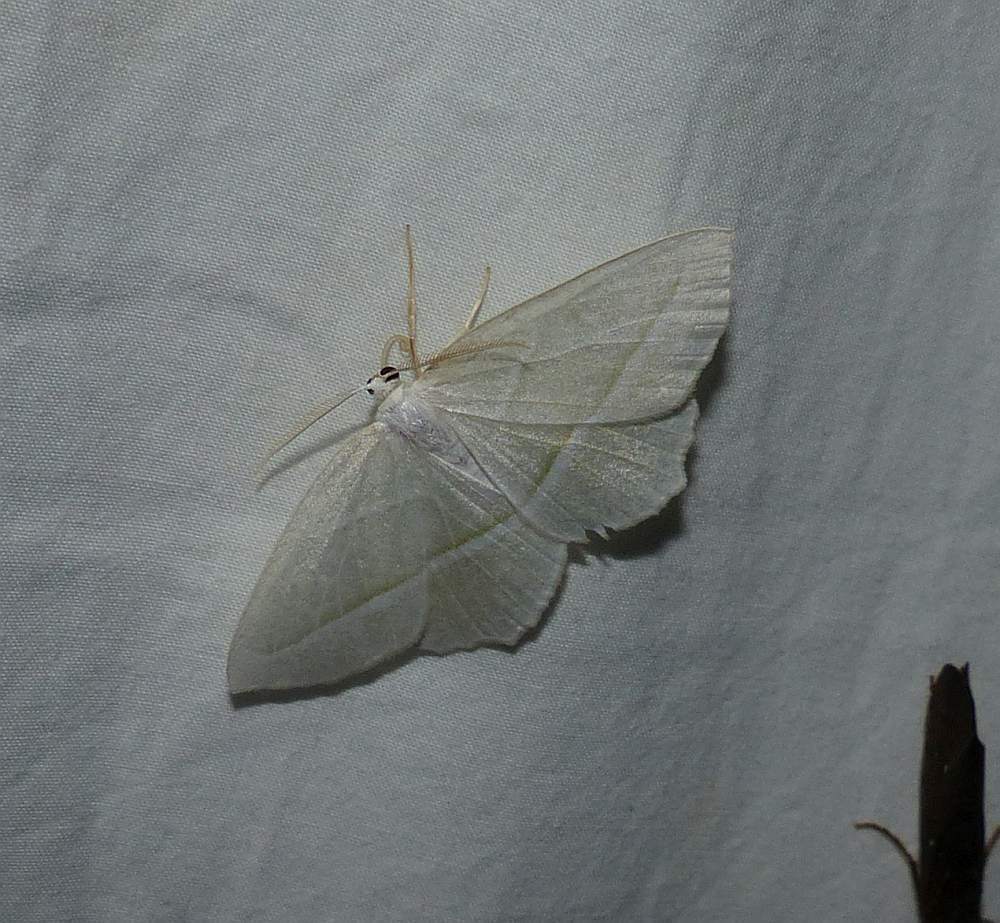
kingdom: Animalia
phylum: Arthropoda
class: Insecta
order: Lepidoptera
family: Geometridae
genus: Campaea
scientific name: Campaea perlata
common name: Fringed looper
